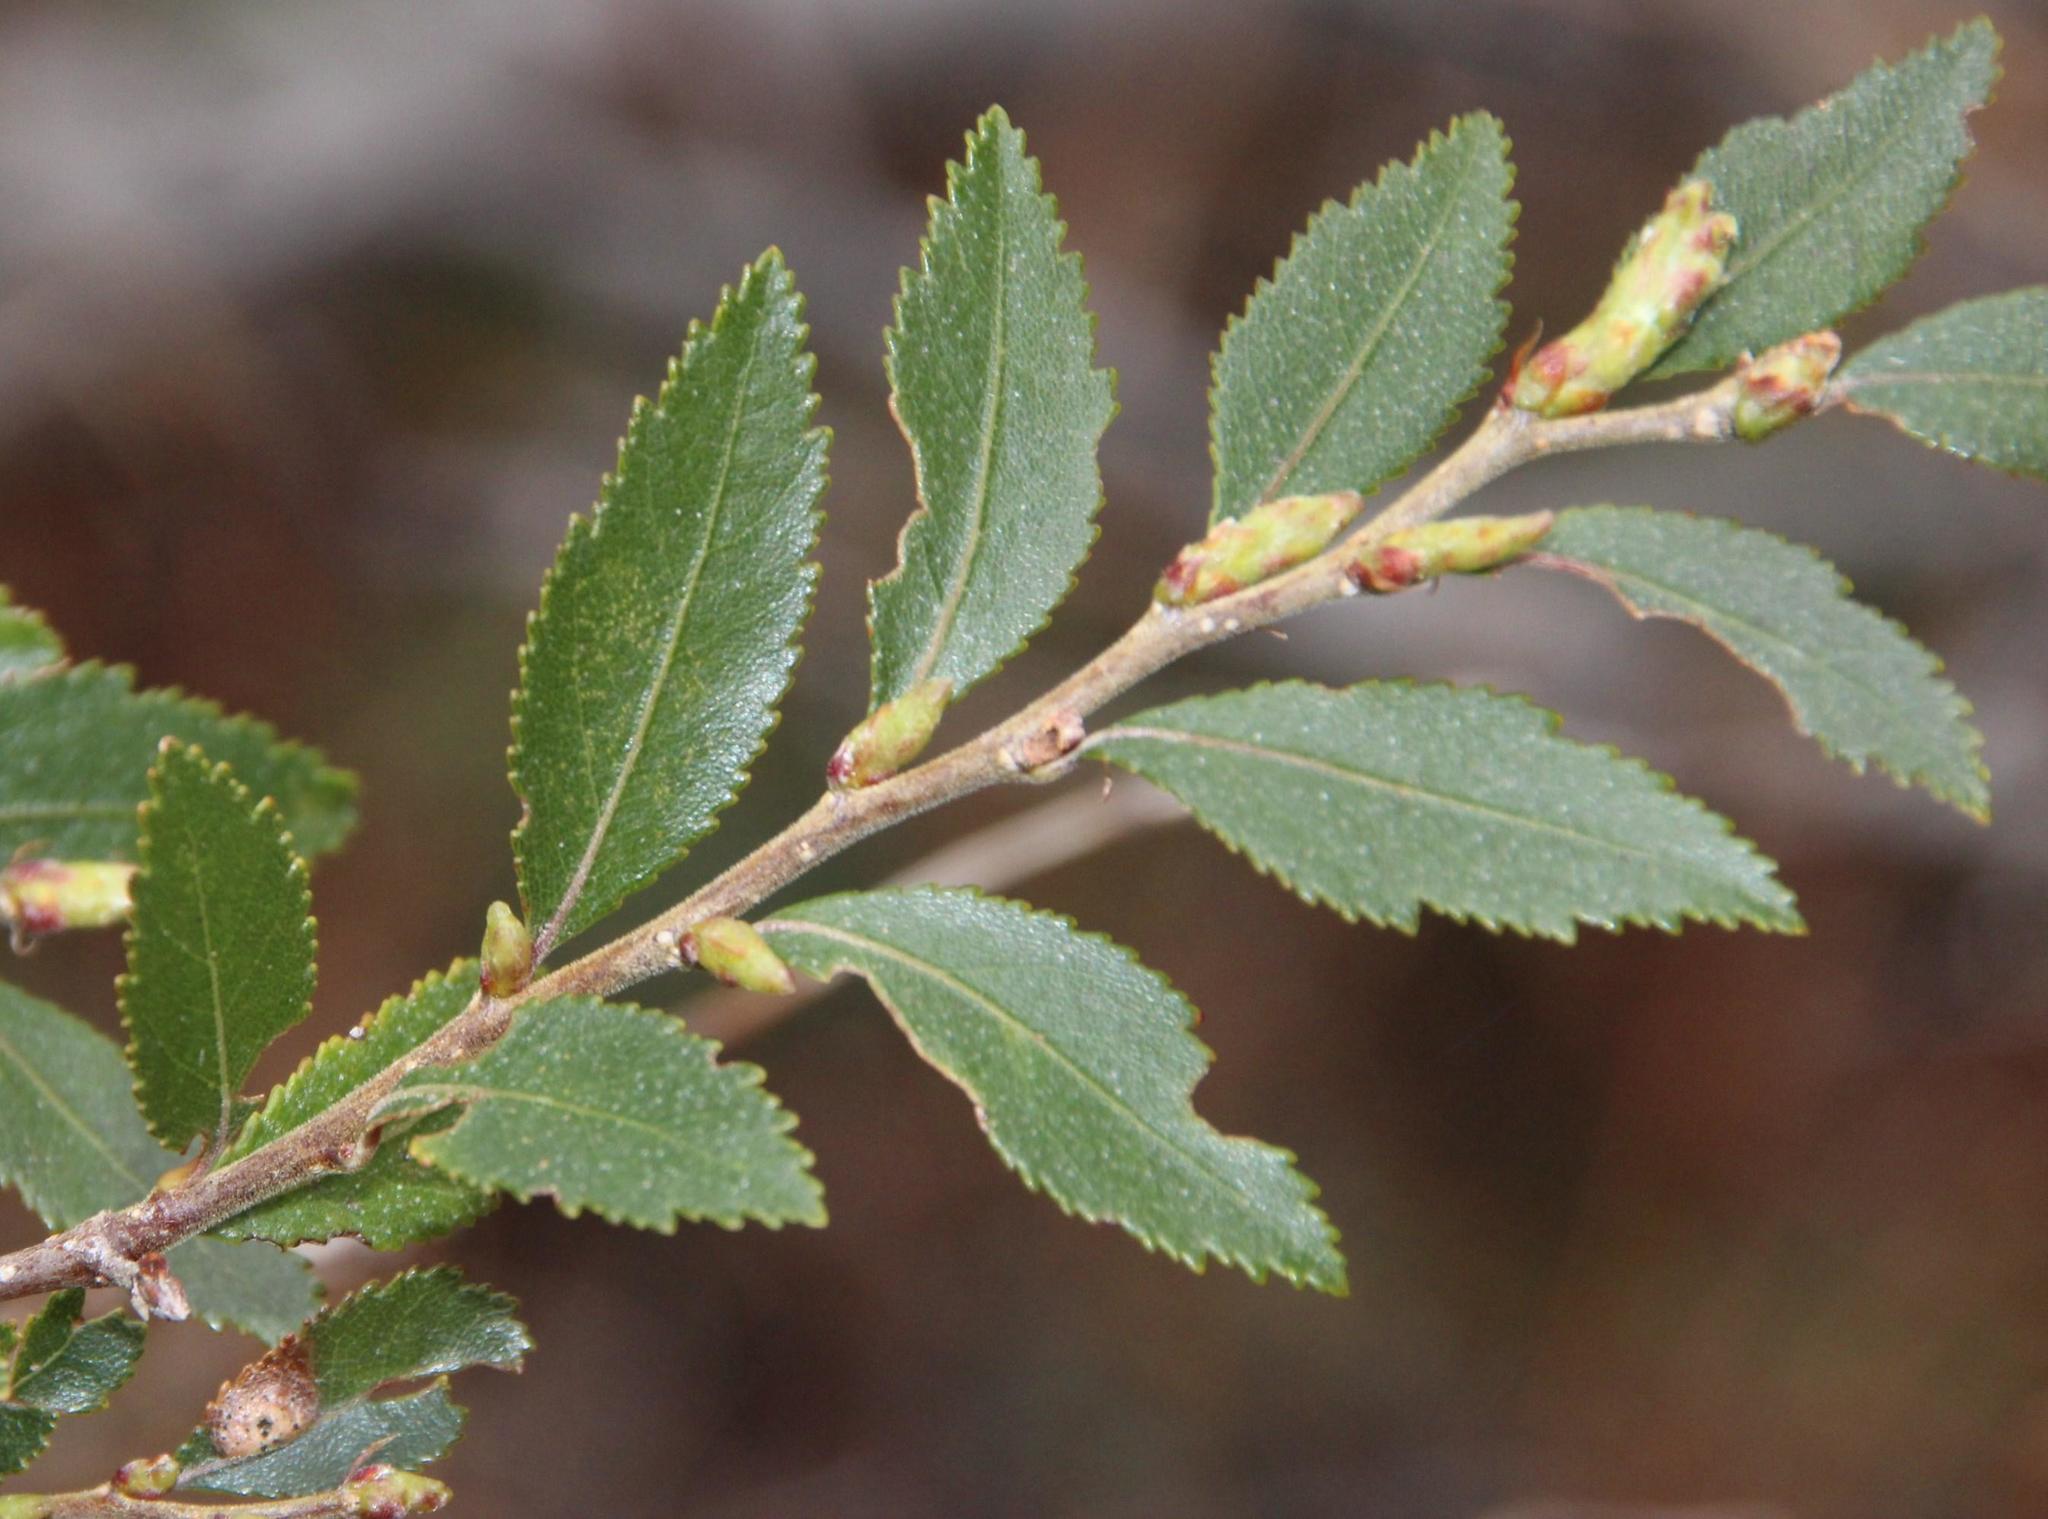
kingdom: Plantae
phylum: Tracheophyta
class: Magnoliopsida
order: Fagales
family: Nothofagaceae
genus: Nothofagus
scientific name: Nothofagus dombeyi
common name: Coigue
